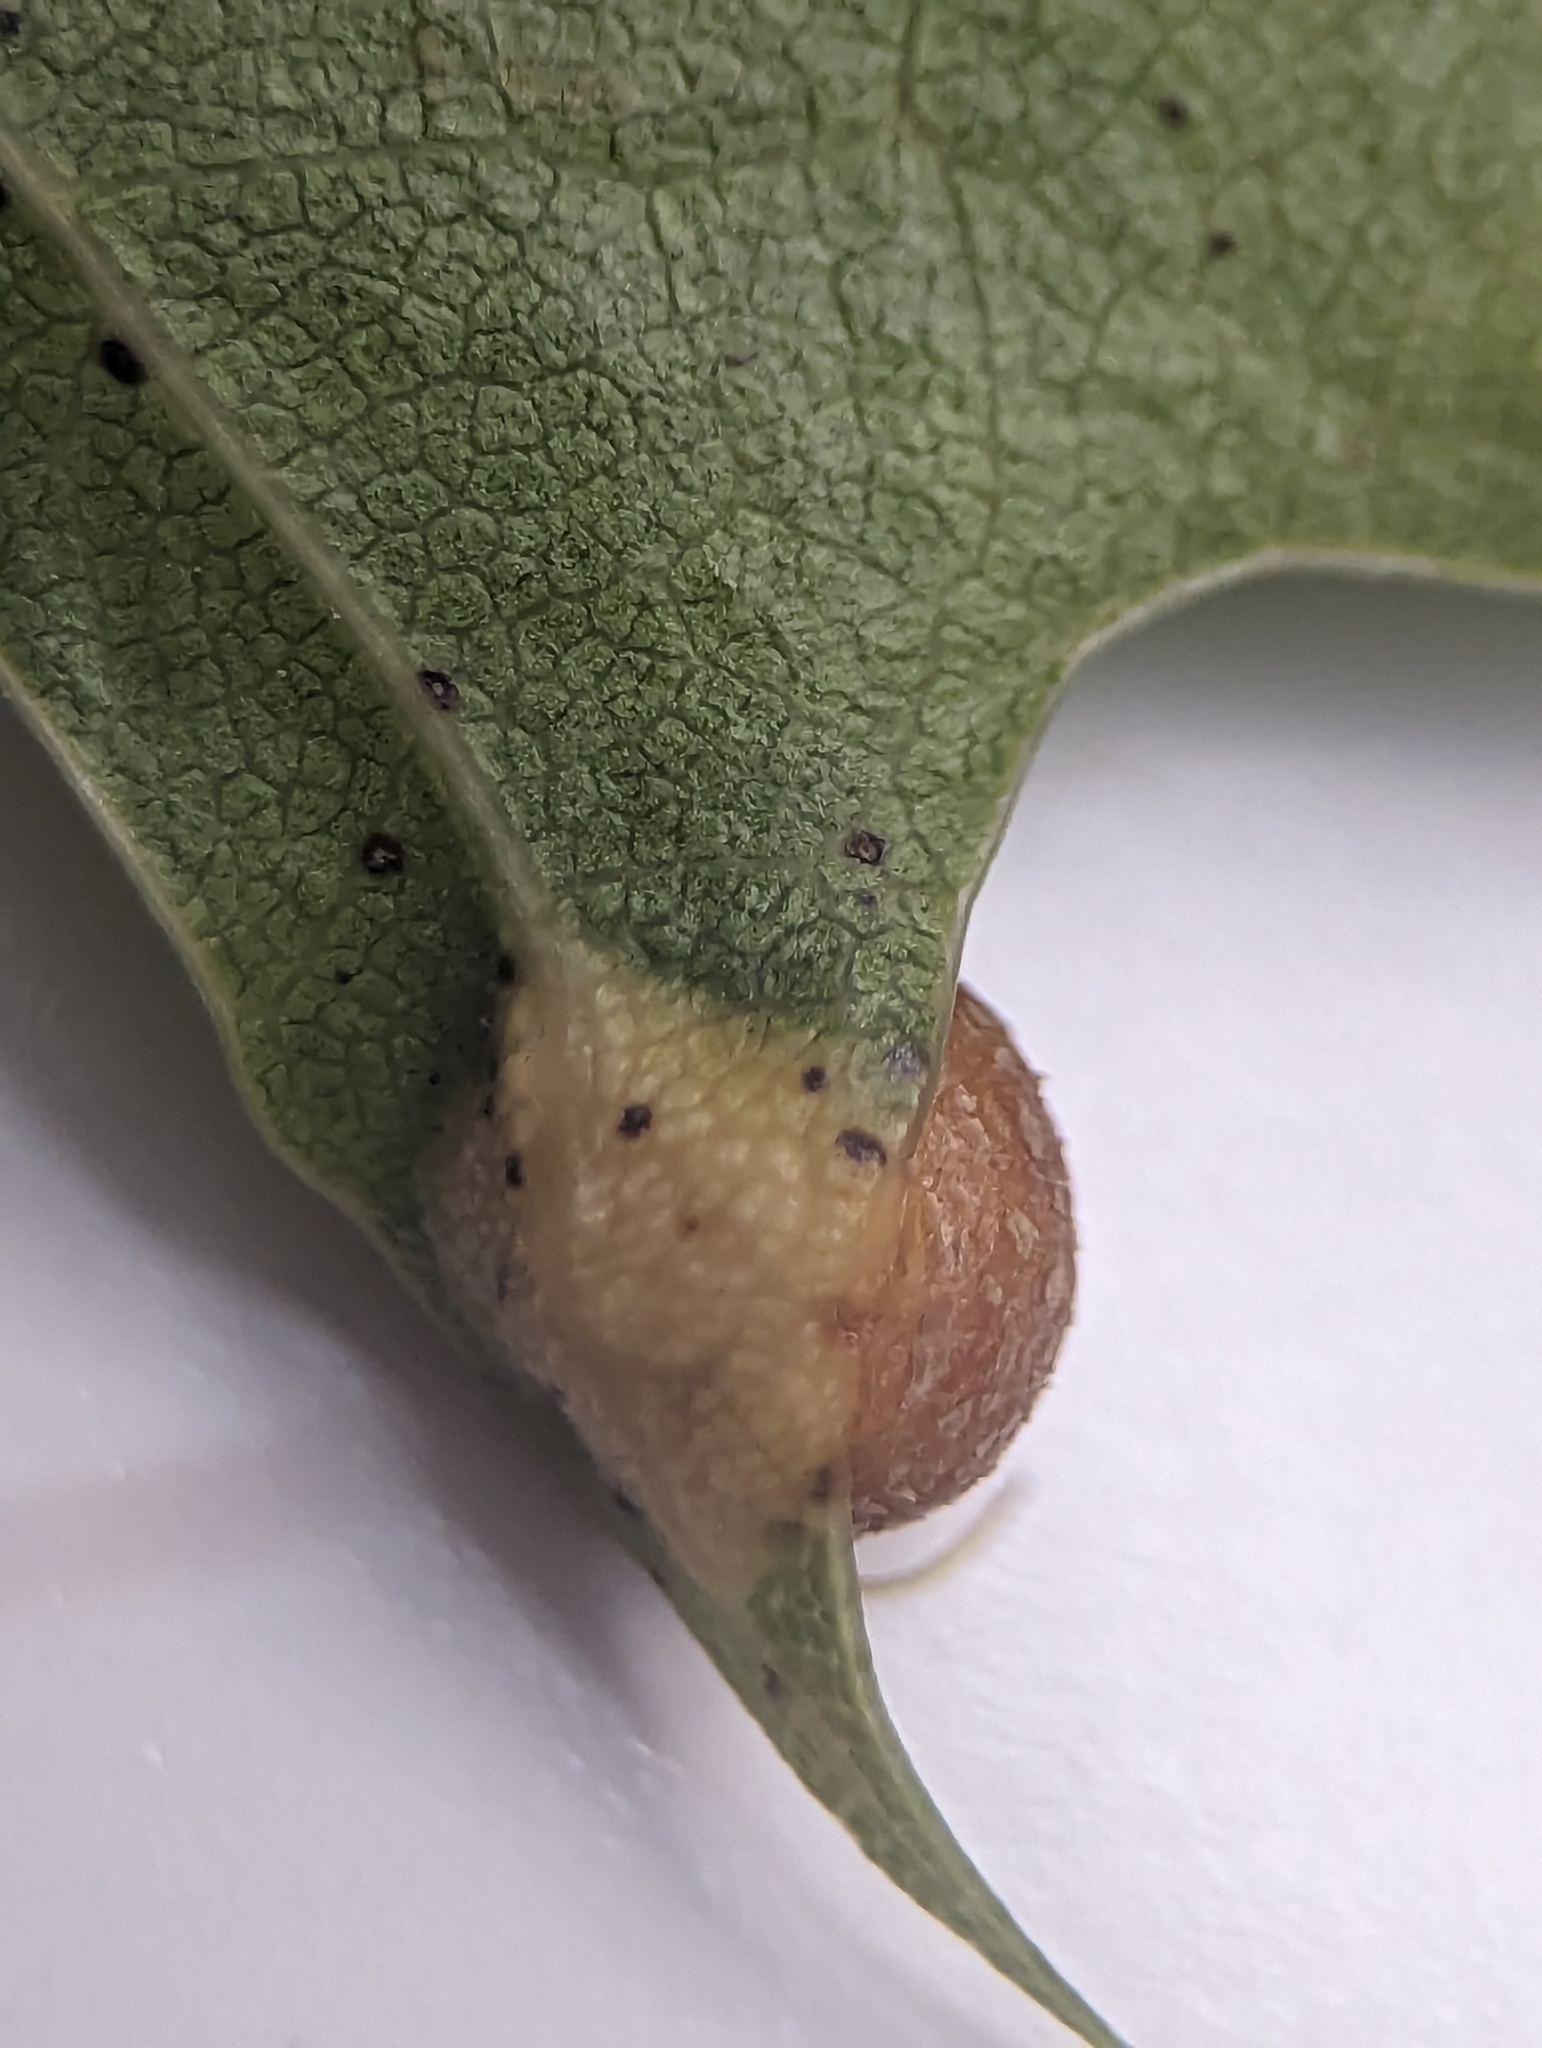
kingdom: Animalia
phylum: Arthropoda
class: Insecta
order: Diptera
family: Cecidomyiidae
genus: Polystepha
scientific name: Polystepha pilulae
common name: Oak leaf gall midge
